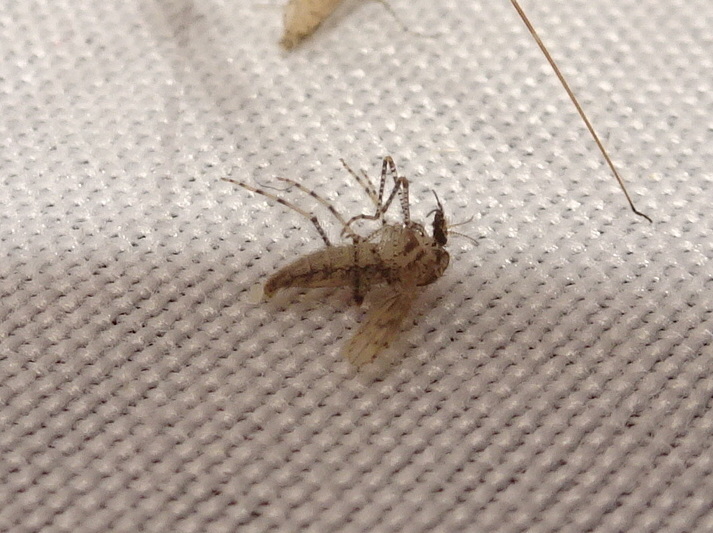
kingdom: Animalia
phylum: Arthropoda
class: Insecta
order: Diptera
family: Chaoboridae
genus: Chaoborus
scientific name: Chaoborus punctipennis
